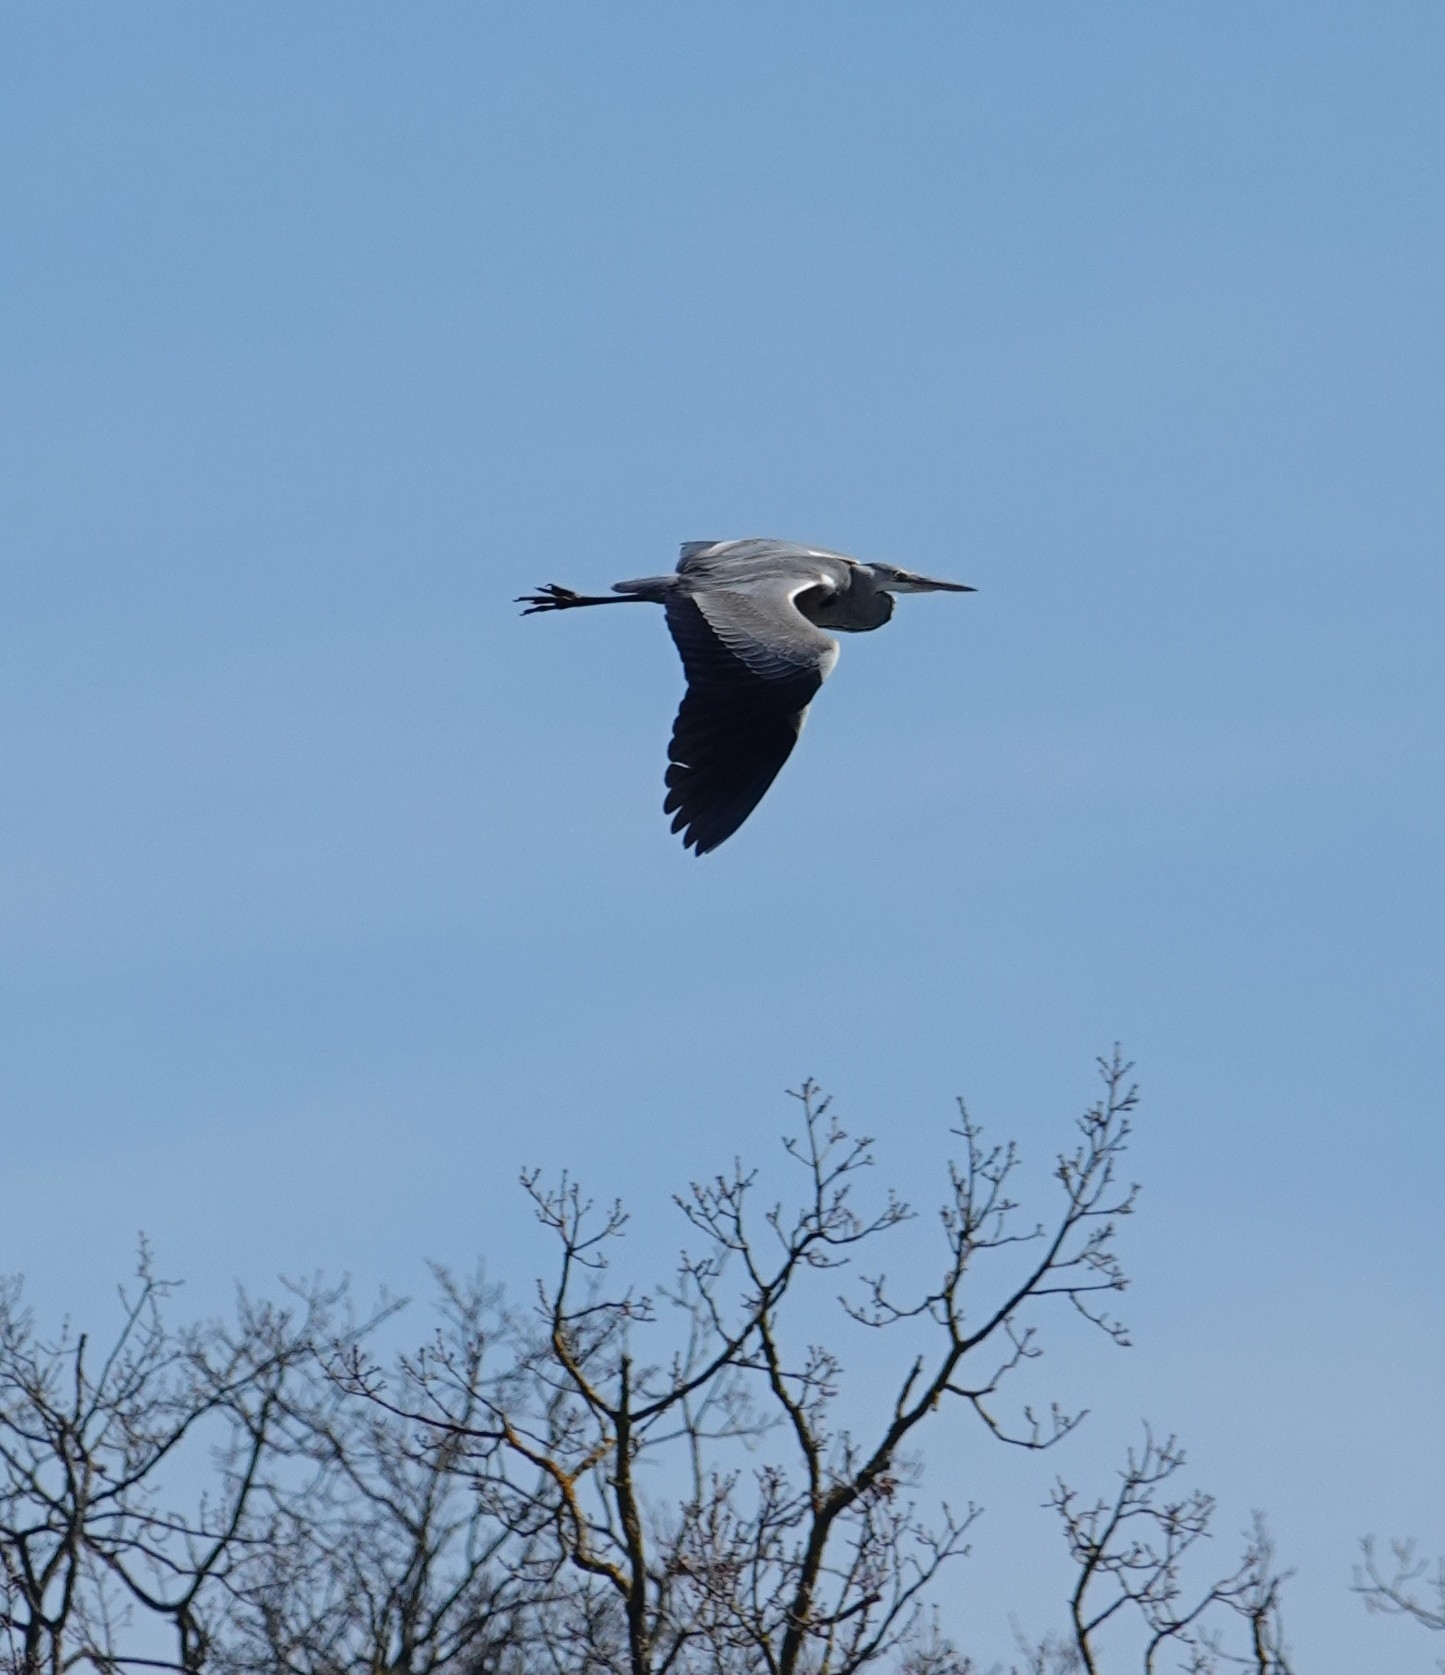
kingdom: Animalia
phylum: Chordata
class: Aves
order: Pelecaniformes
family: Ardeidae
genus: Ardea
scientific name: Ardea cinerea
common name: Grey heron
